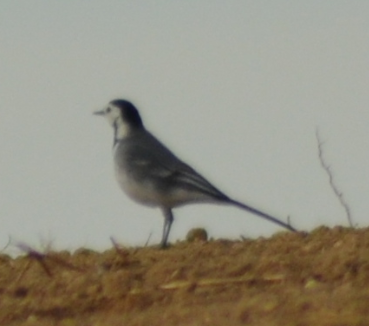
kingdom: Animalia
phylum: Chordata
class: Aves
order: Passeriformes
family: Motacillidae
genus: Motacilla
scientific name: Motacilla alba
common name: White wagtail
